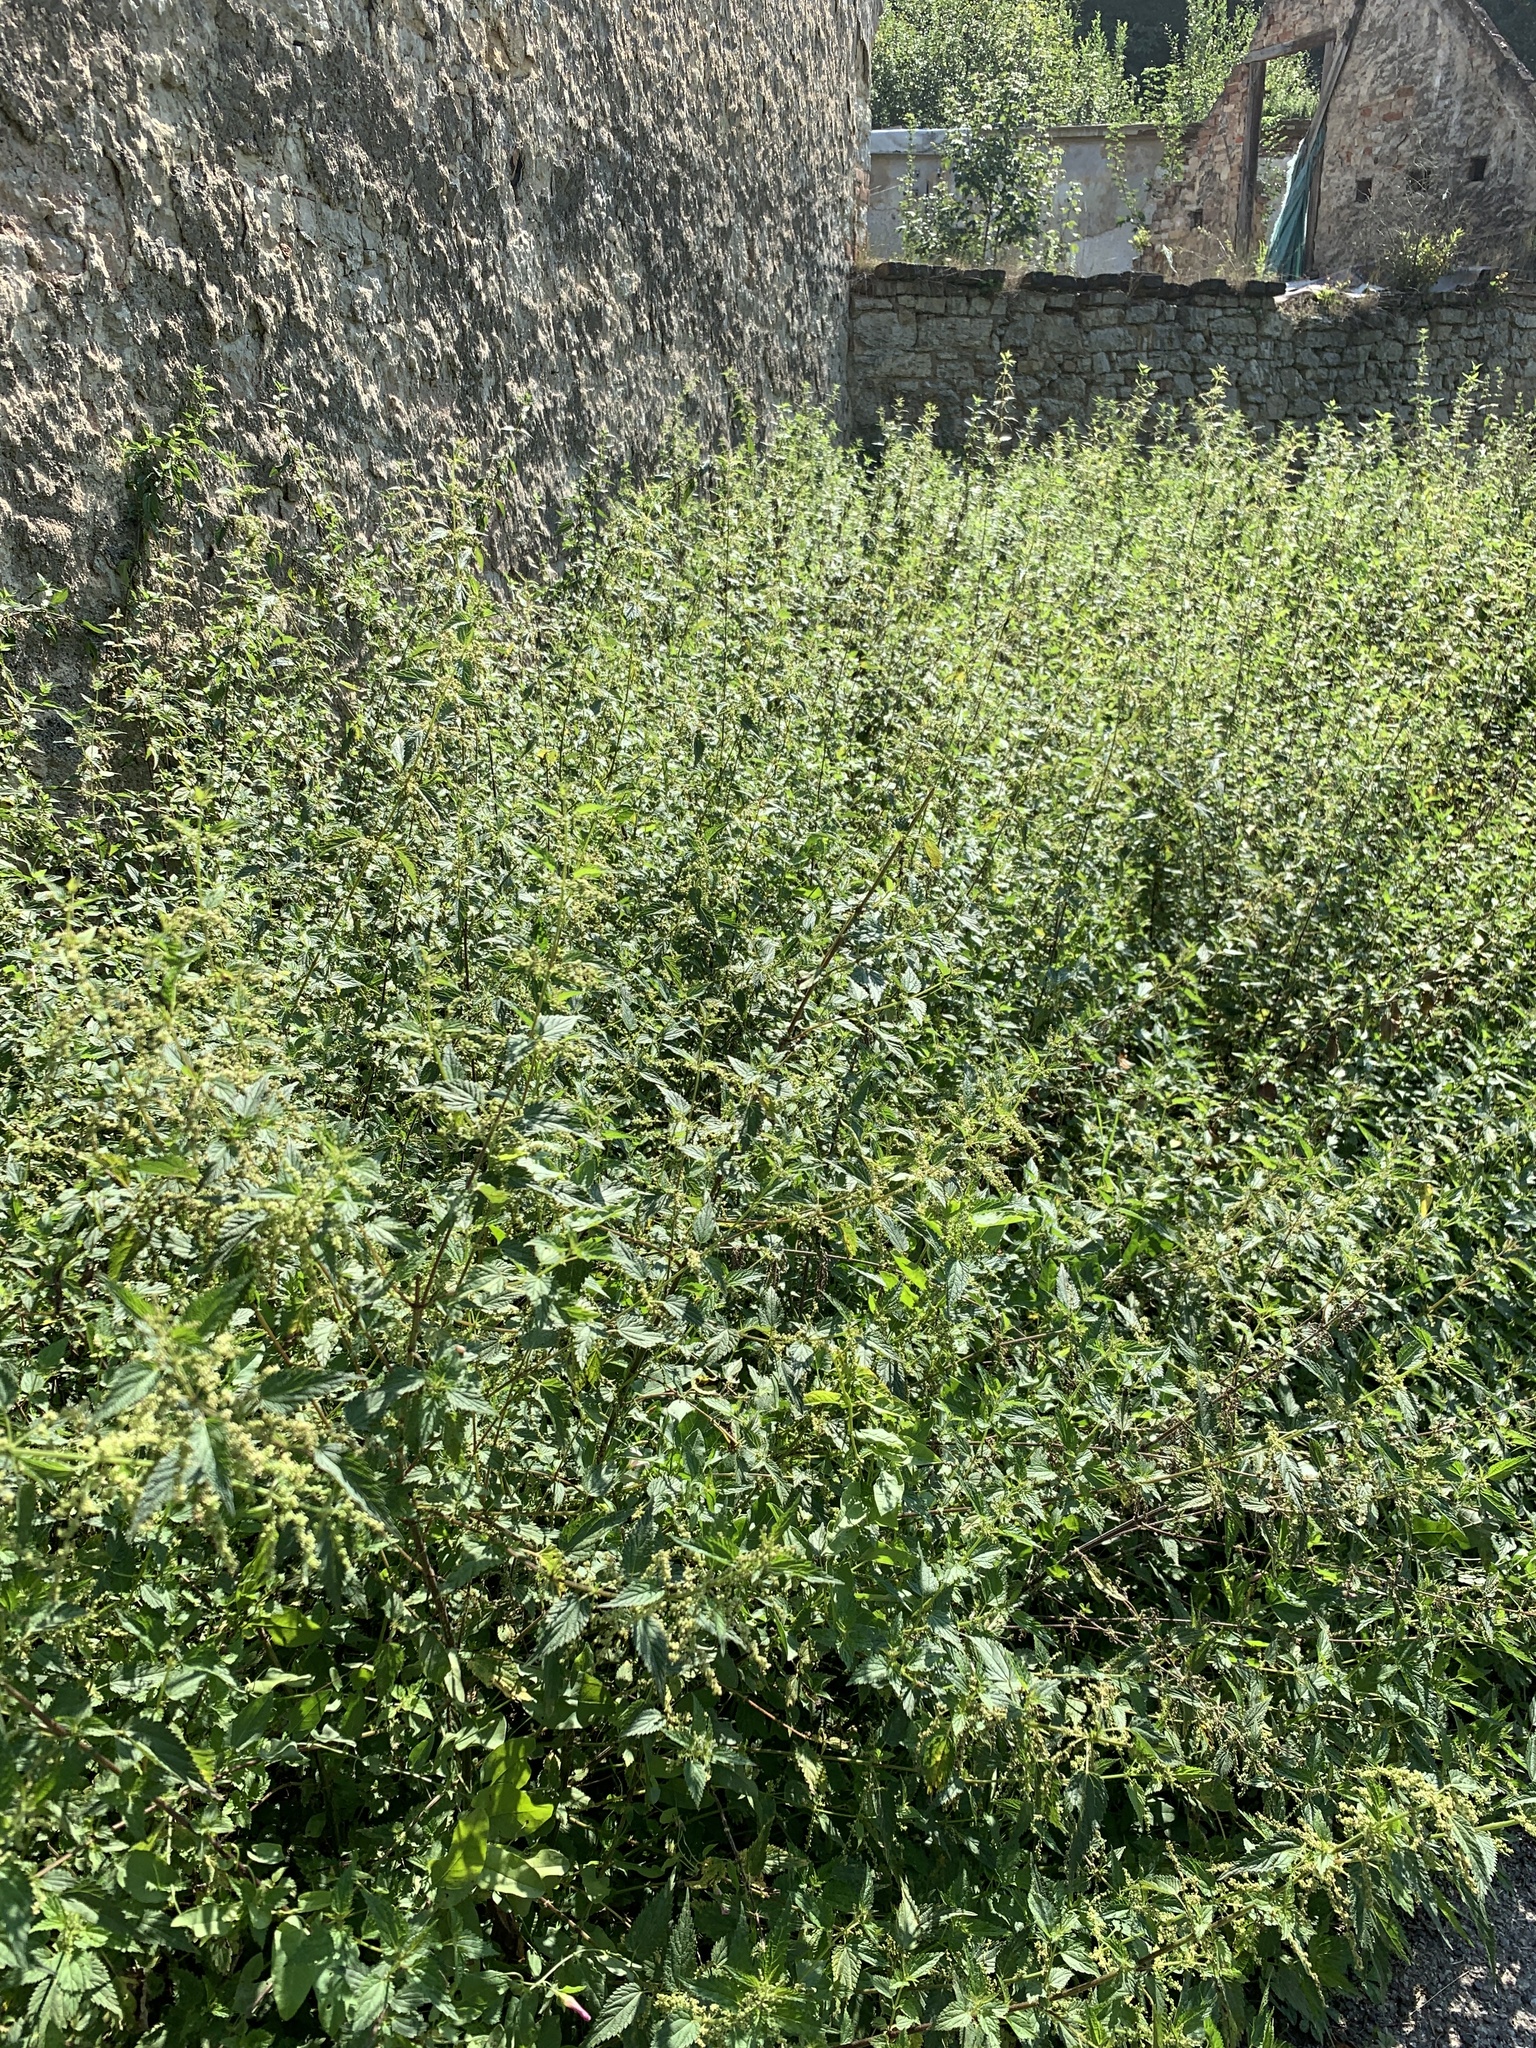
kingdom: Plantae
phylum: Tracheophyta
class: Magnoliopsida
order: Rosales
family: Urticaceae
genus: Urtica
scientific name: Urtica dioica
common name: Common nettle
